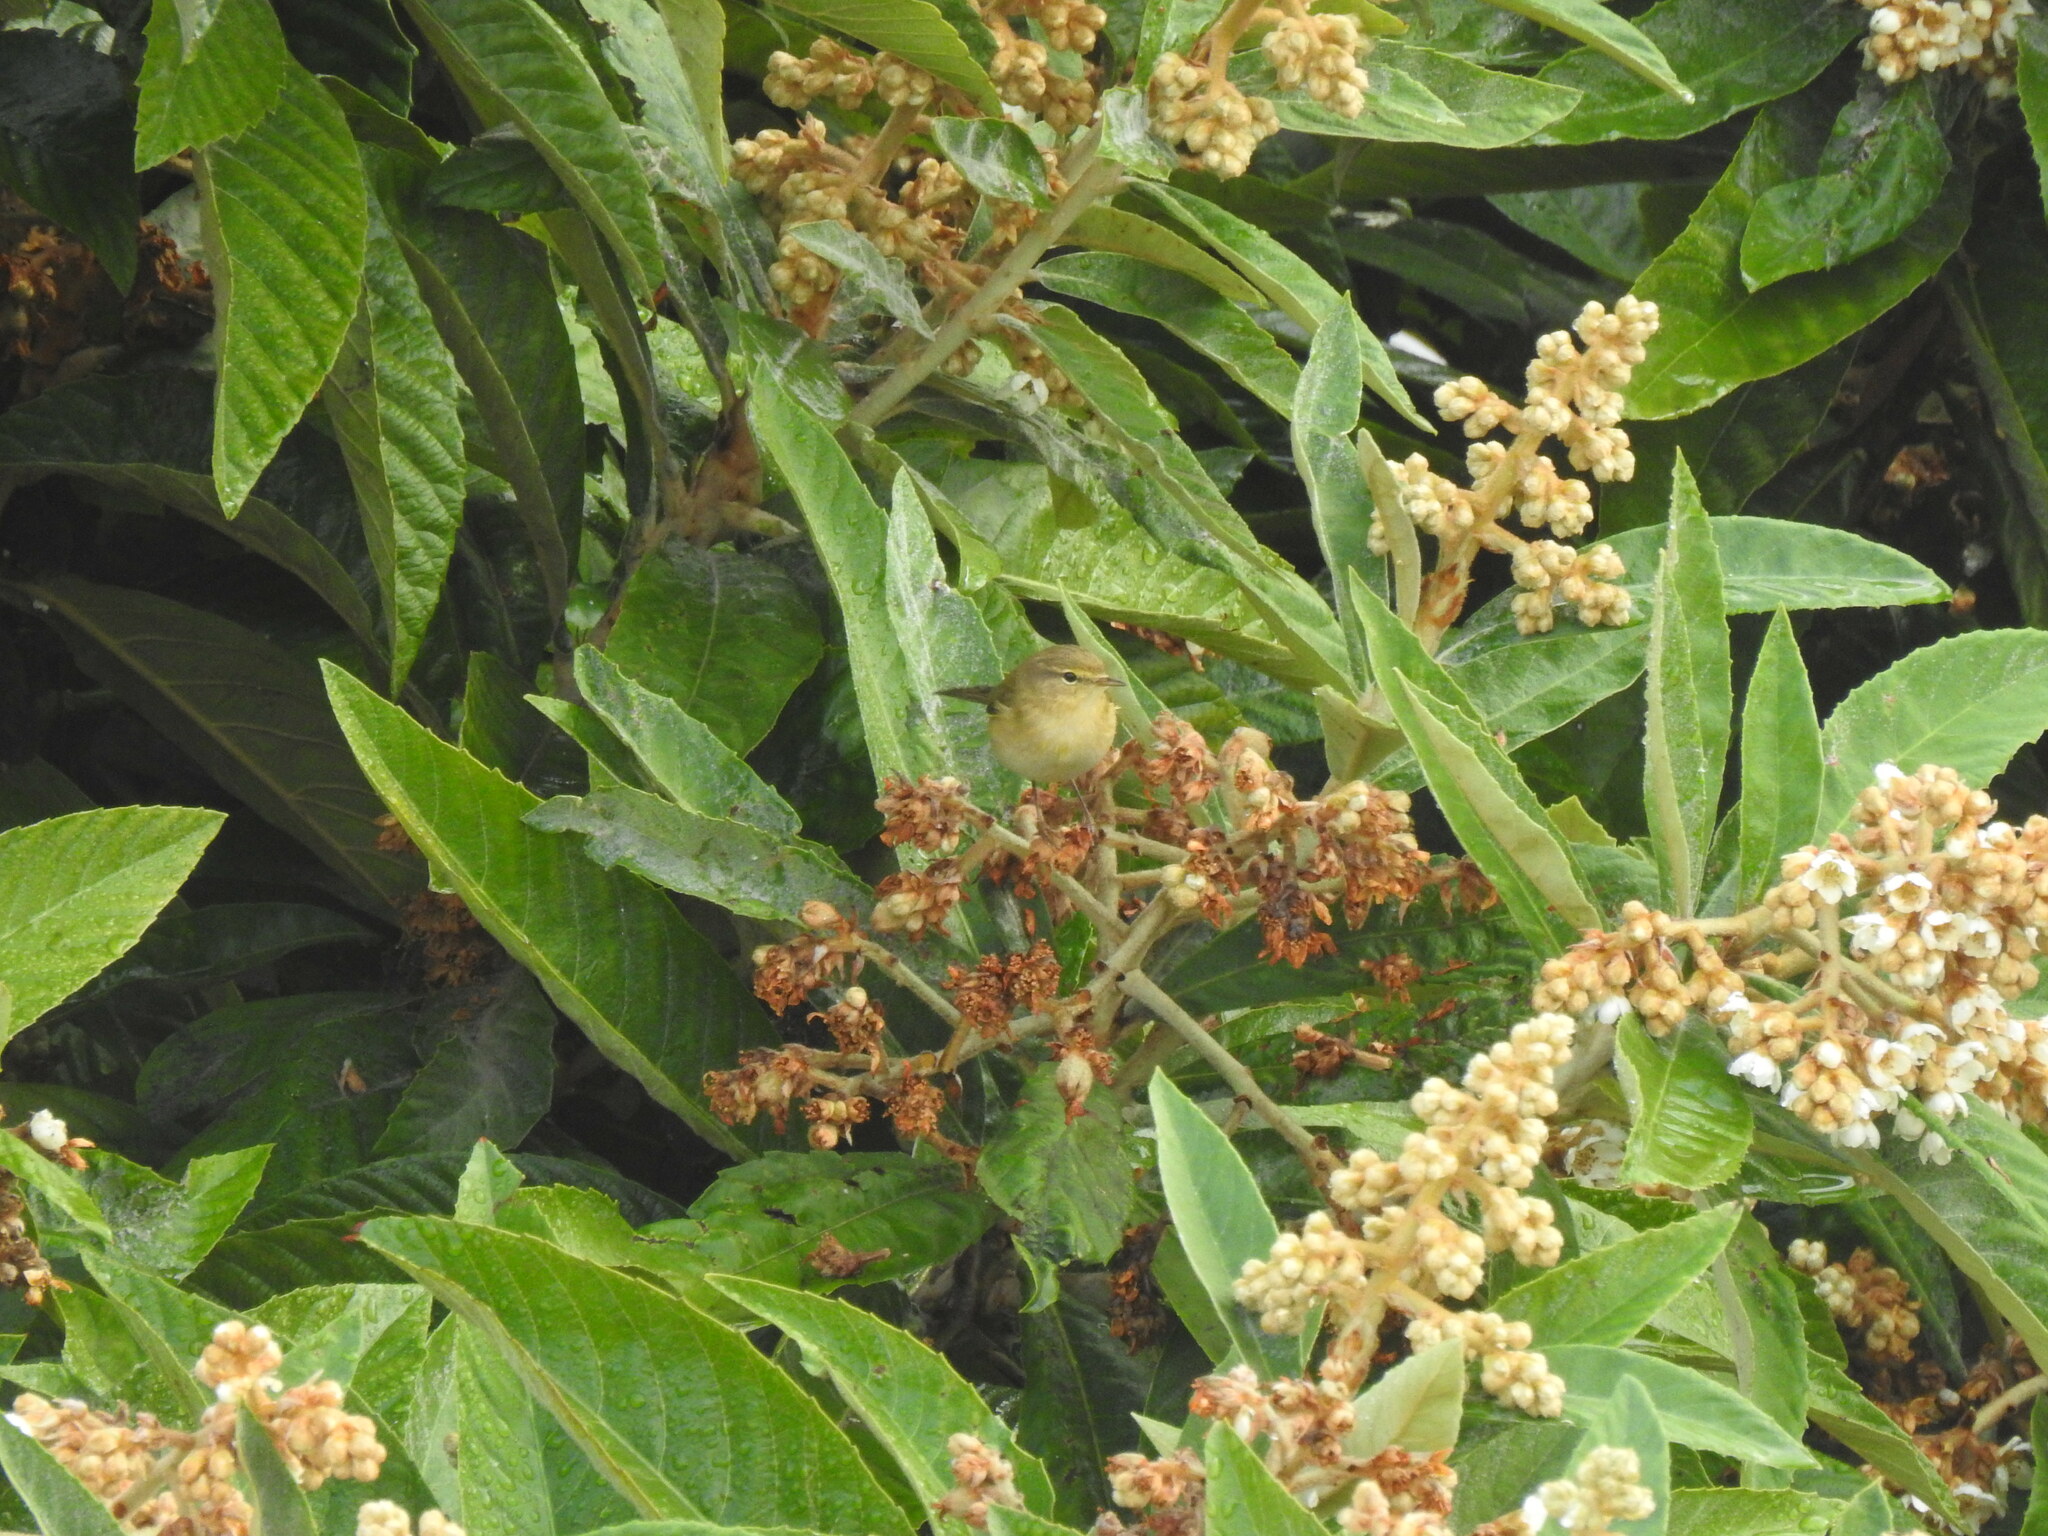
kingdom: Animalia
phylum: Chordata
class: Aves
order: Passeriformes
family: Phylloscopidae
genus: Phylloscopus
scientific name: Phylloscopus collybita
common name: Common chiffchaff
